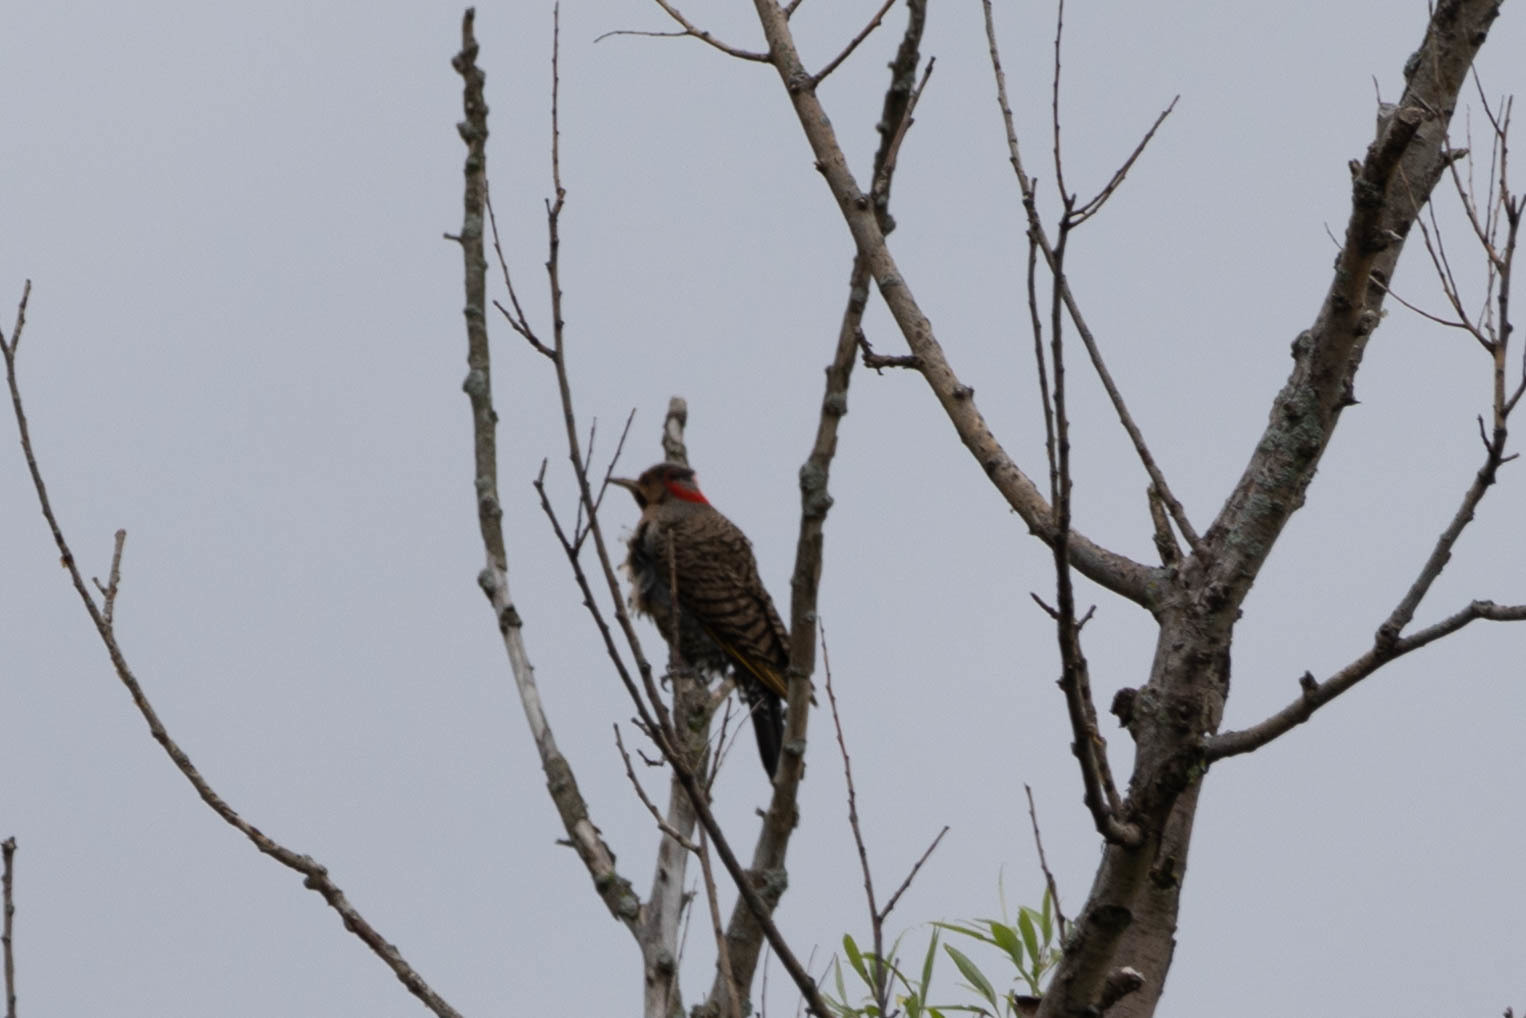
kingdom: Animalia
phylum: Chordata
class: Aves
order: Piciformes
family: Picidae
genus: Colaptes
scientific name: Colaptes auratus
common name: Northern flicker
